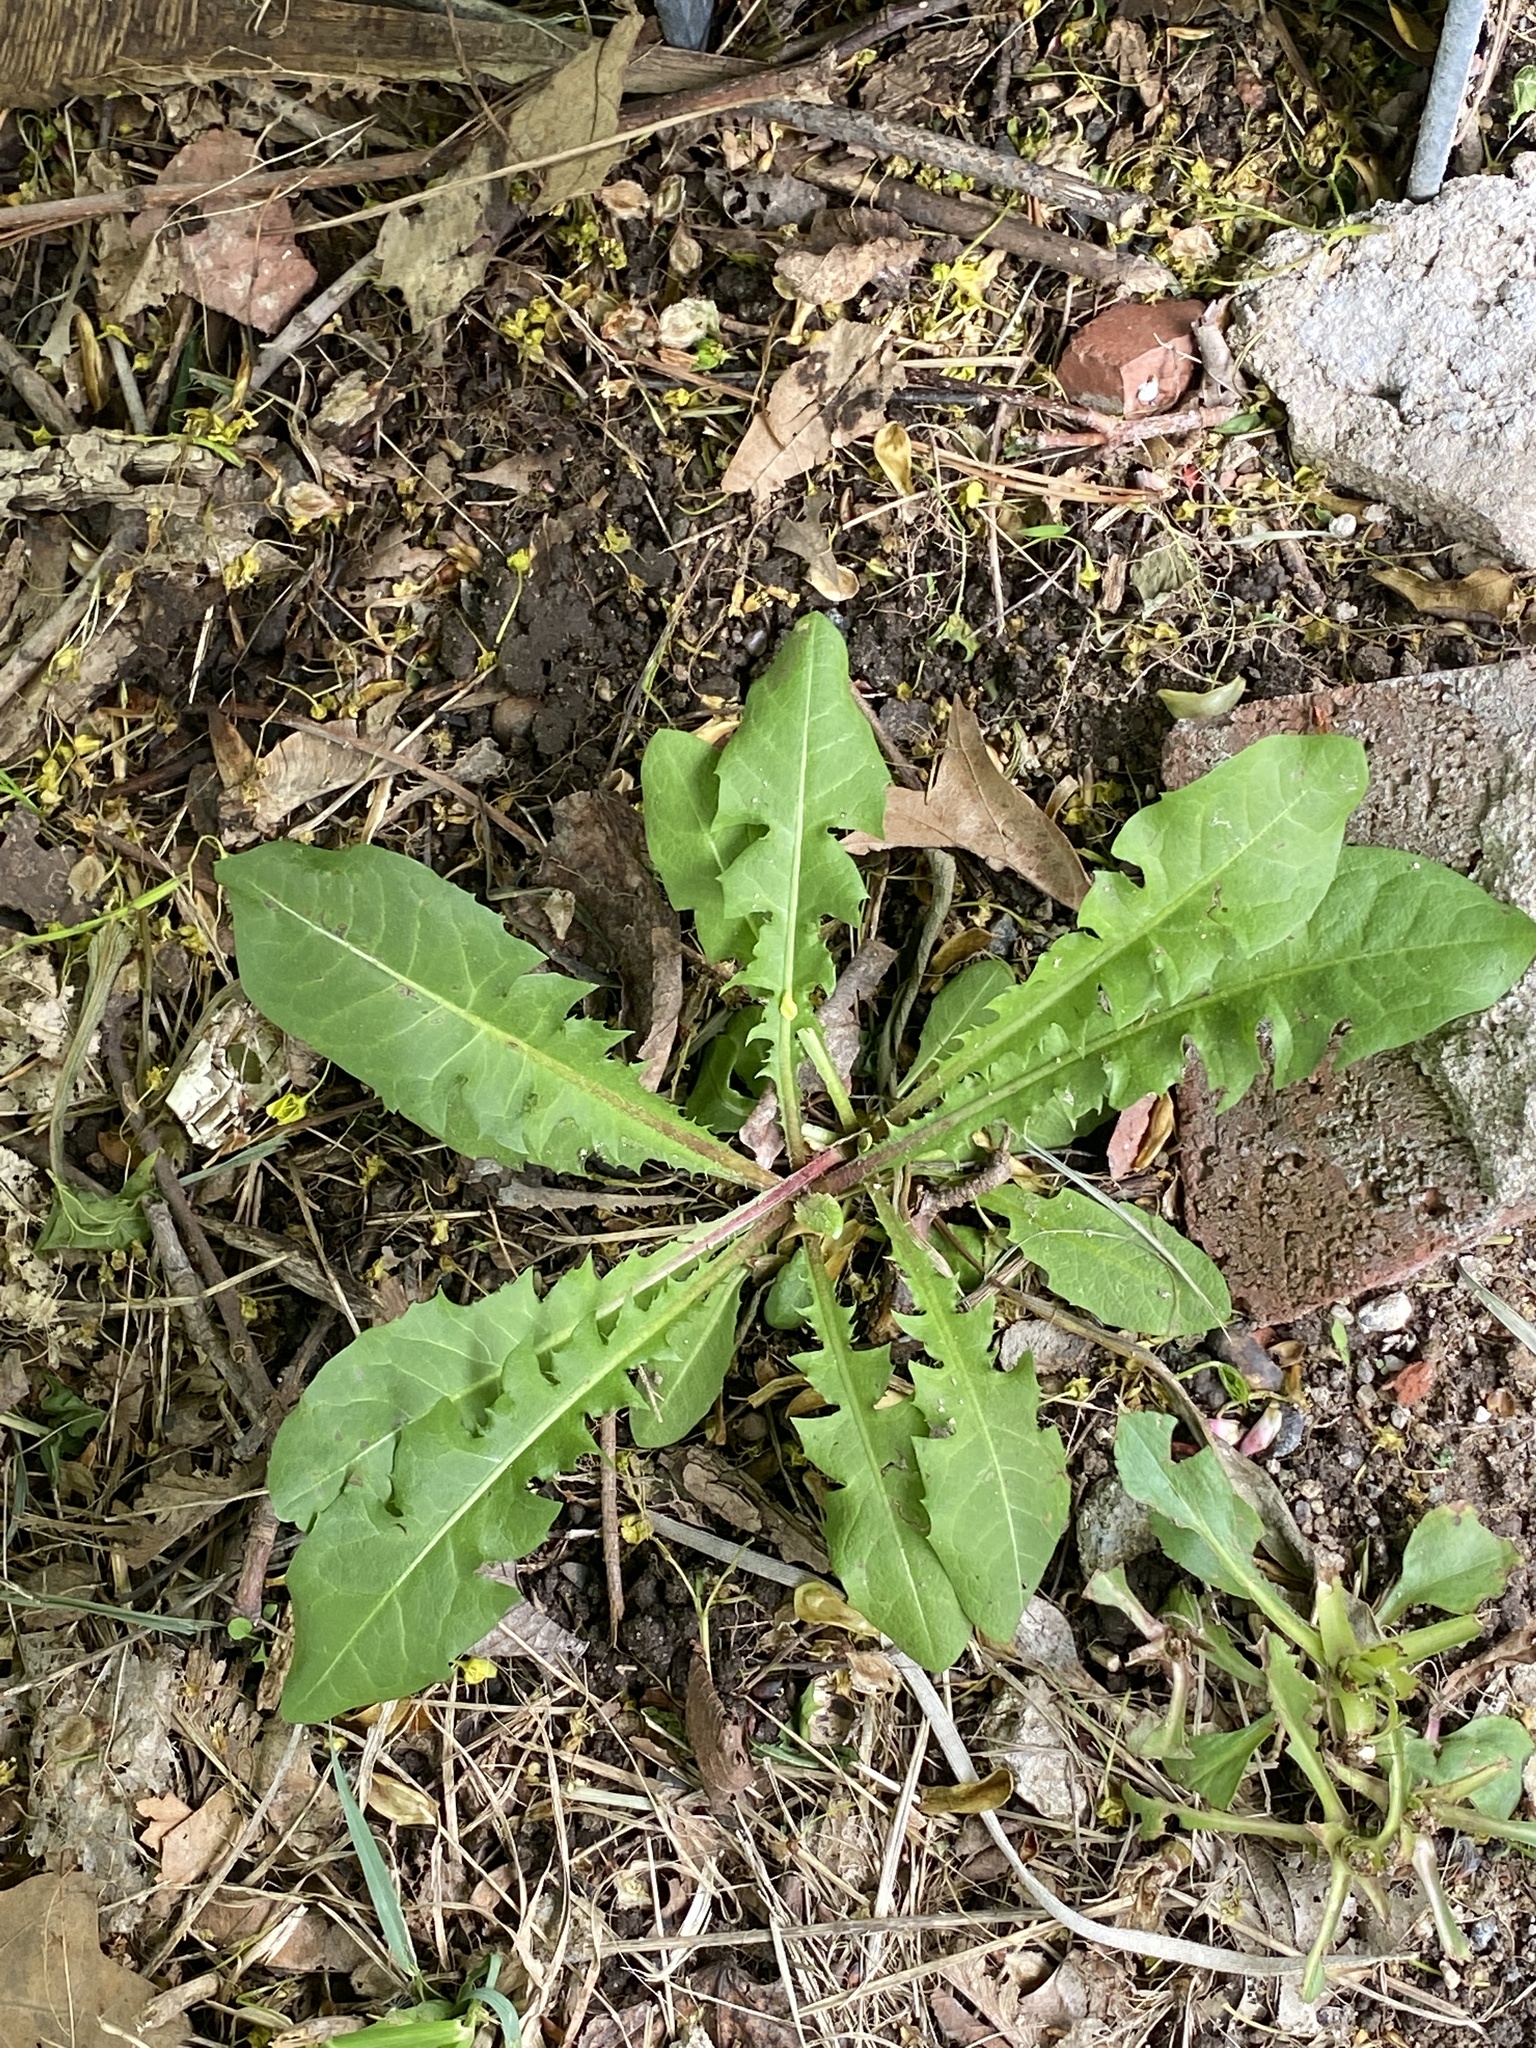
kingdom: Plantae
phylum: Tracheophyta
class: Magnoliopsida
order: Asterales
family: Asteraceae
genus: Taraxacum
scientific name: Taraxacum officinale
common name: Common dandelion
